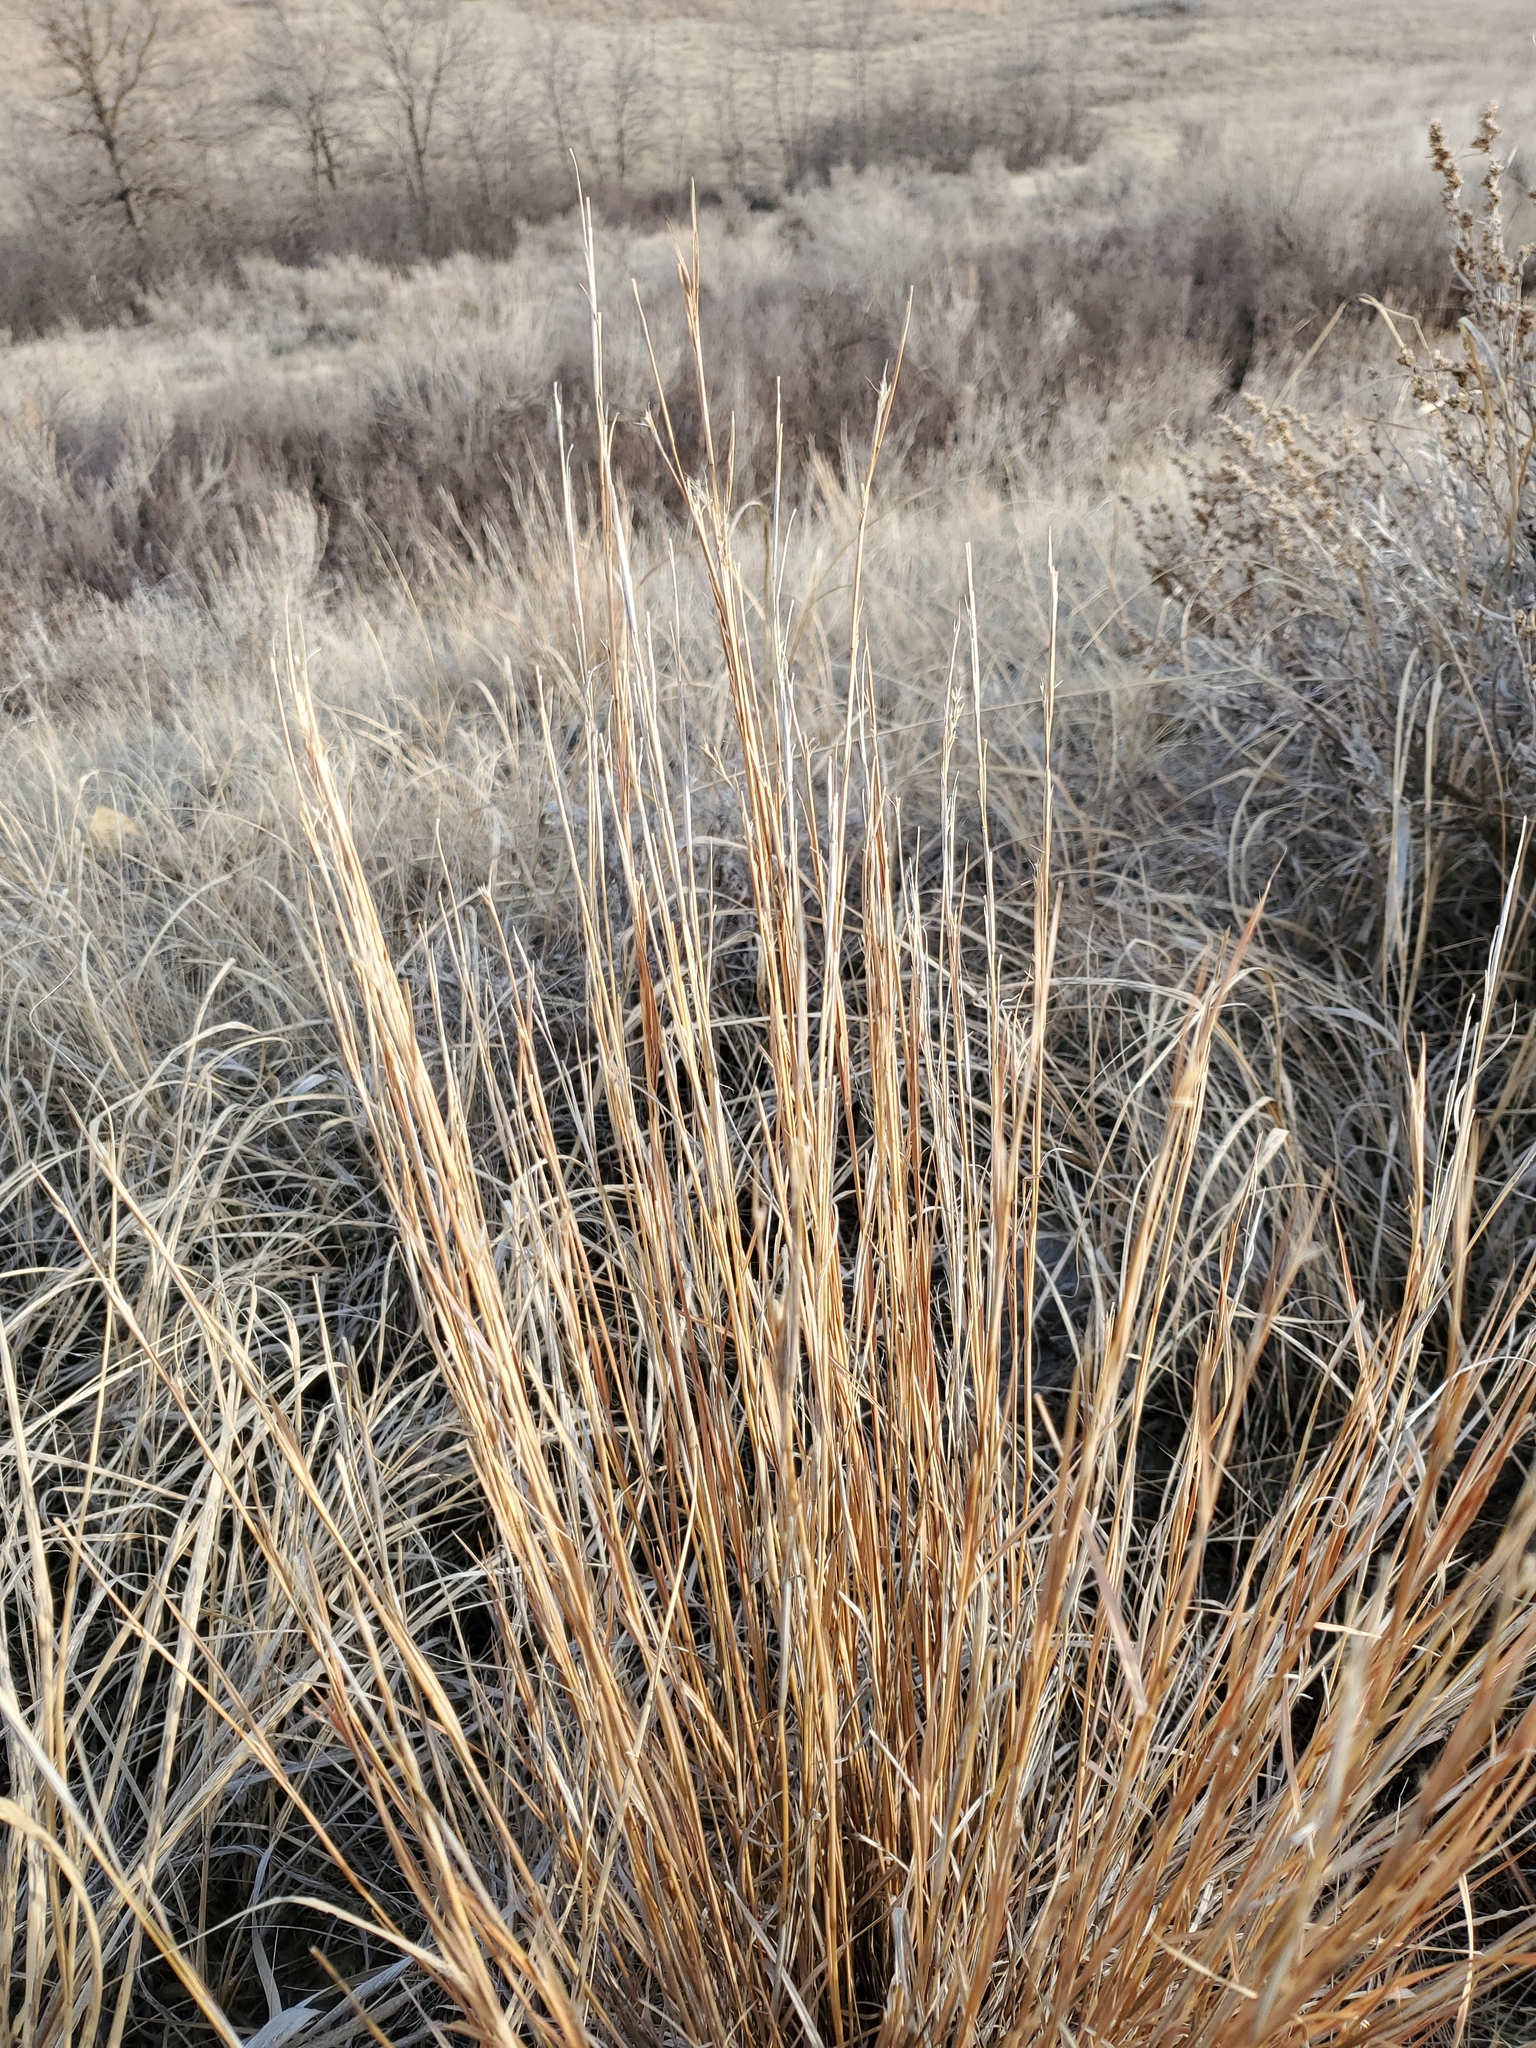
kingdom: Plantae
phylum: Tracheophyta
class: Liliopsida
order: Poales
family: Poaceae
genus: Schizachyrium
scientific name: Schizachyrium scoparium
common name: Little bluestem
